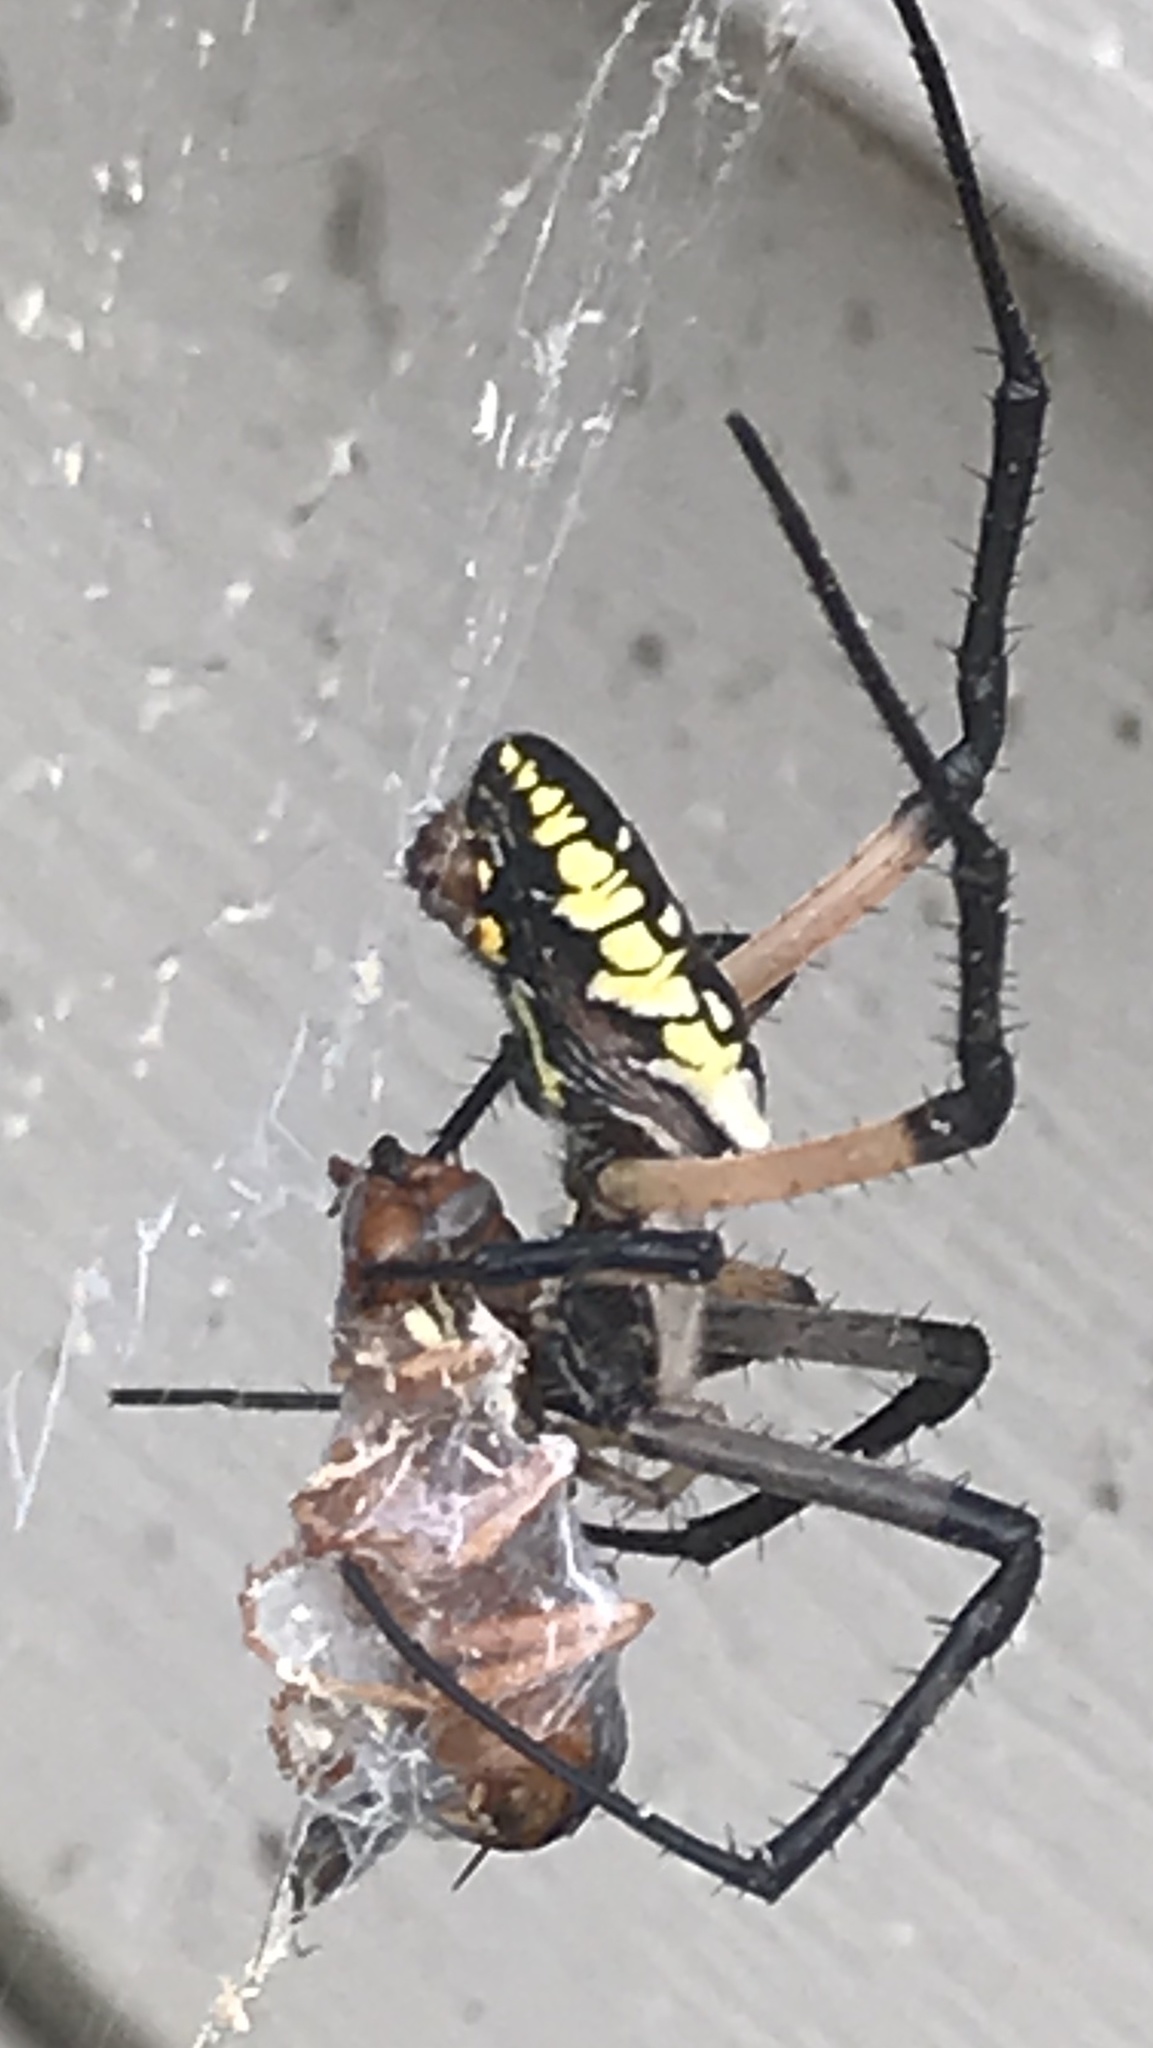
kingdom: Animalia
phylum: Arthropoda
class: Arachnida
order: Araneae
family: Araneidae
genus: Argiope
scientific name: Argiope aurantia
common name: Orb weavers
